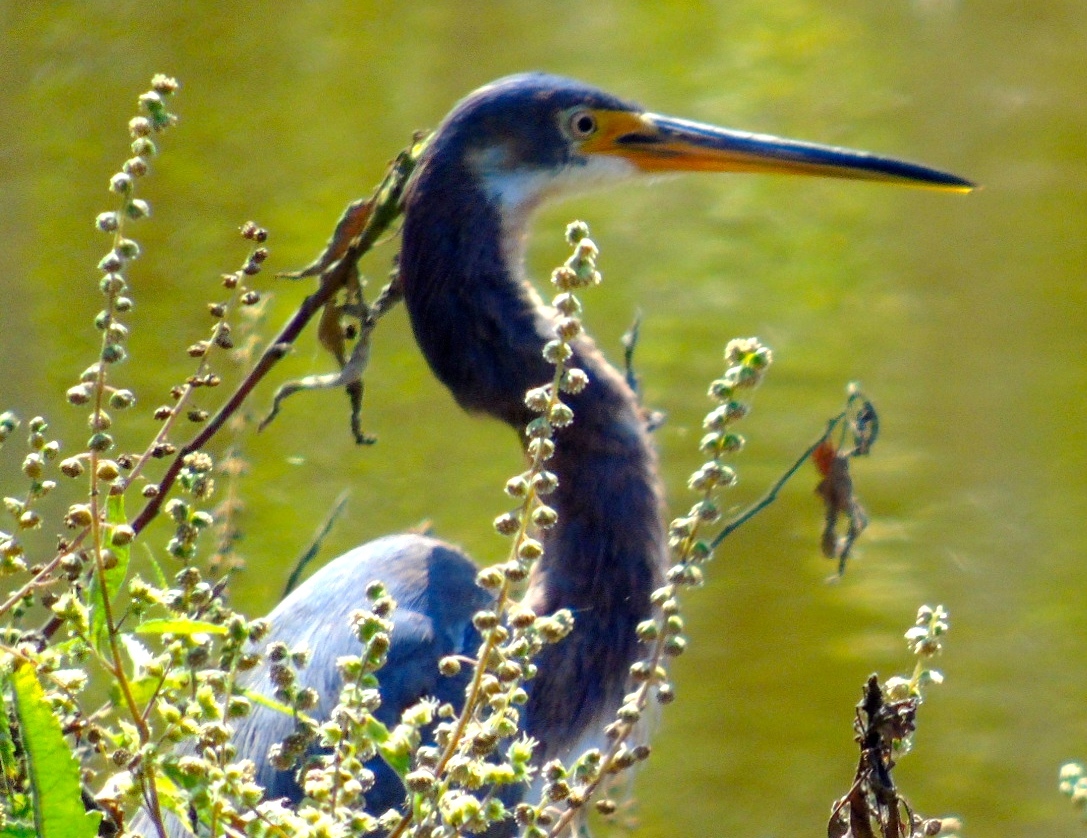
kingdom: Animalia
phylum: Chordata
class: Aves
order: Pelecaniformes
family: Ardeidae
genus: Egretta
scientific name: Egretta tricolor
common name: Tricolored heron
